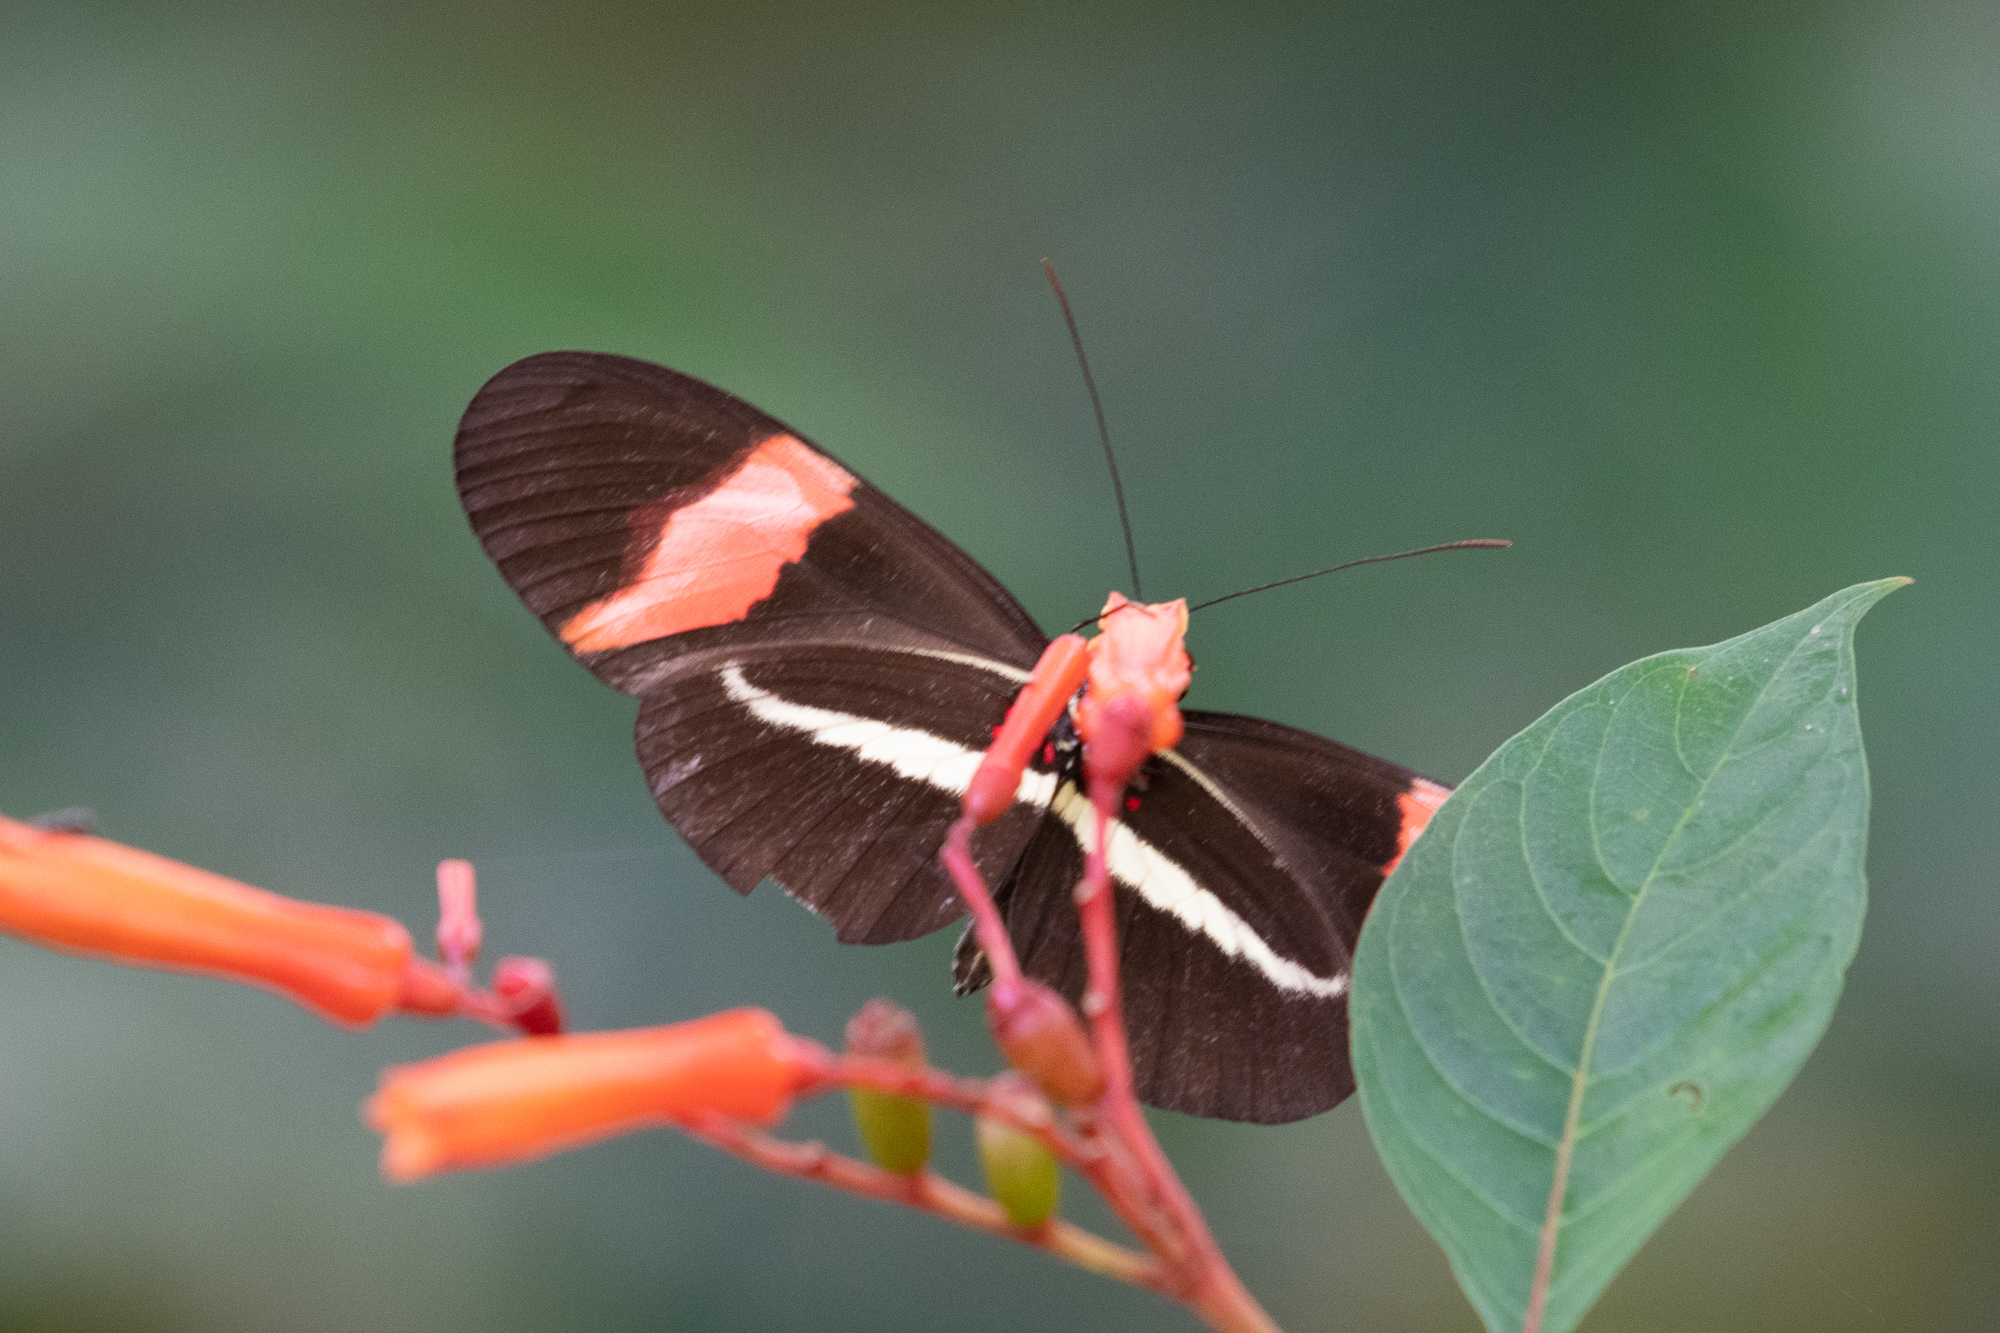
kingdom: Animalia
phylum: Arthropoda
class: Insecta
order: Lepidoptera
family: Nymphalidae
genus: Tirumala
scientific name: Tirumala petiverana
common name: Blue monarch
